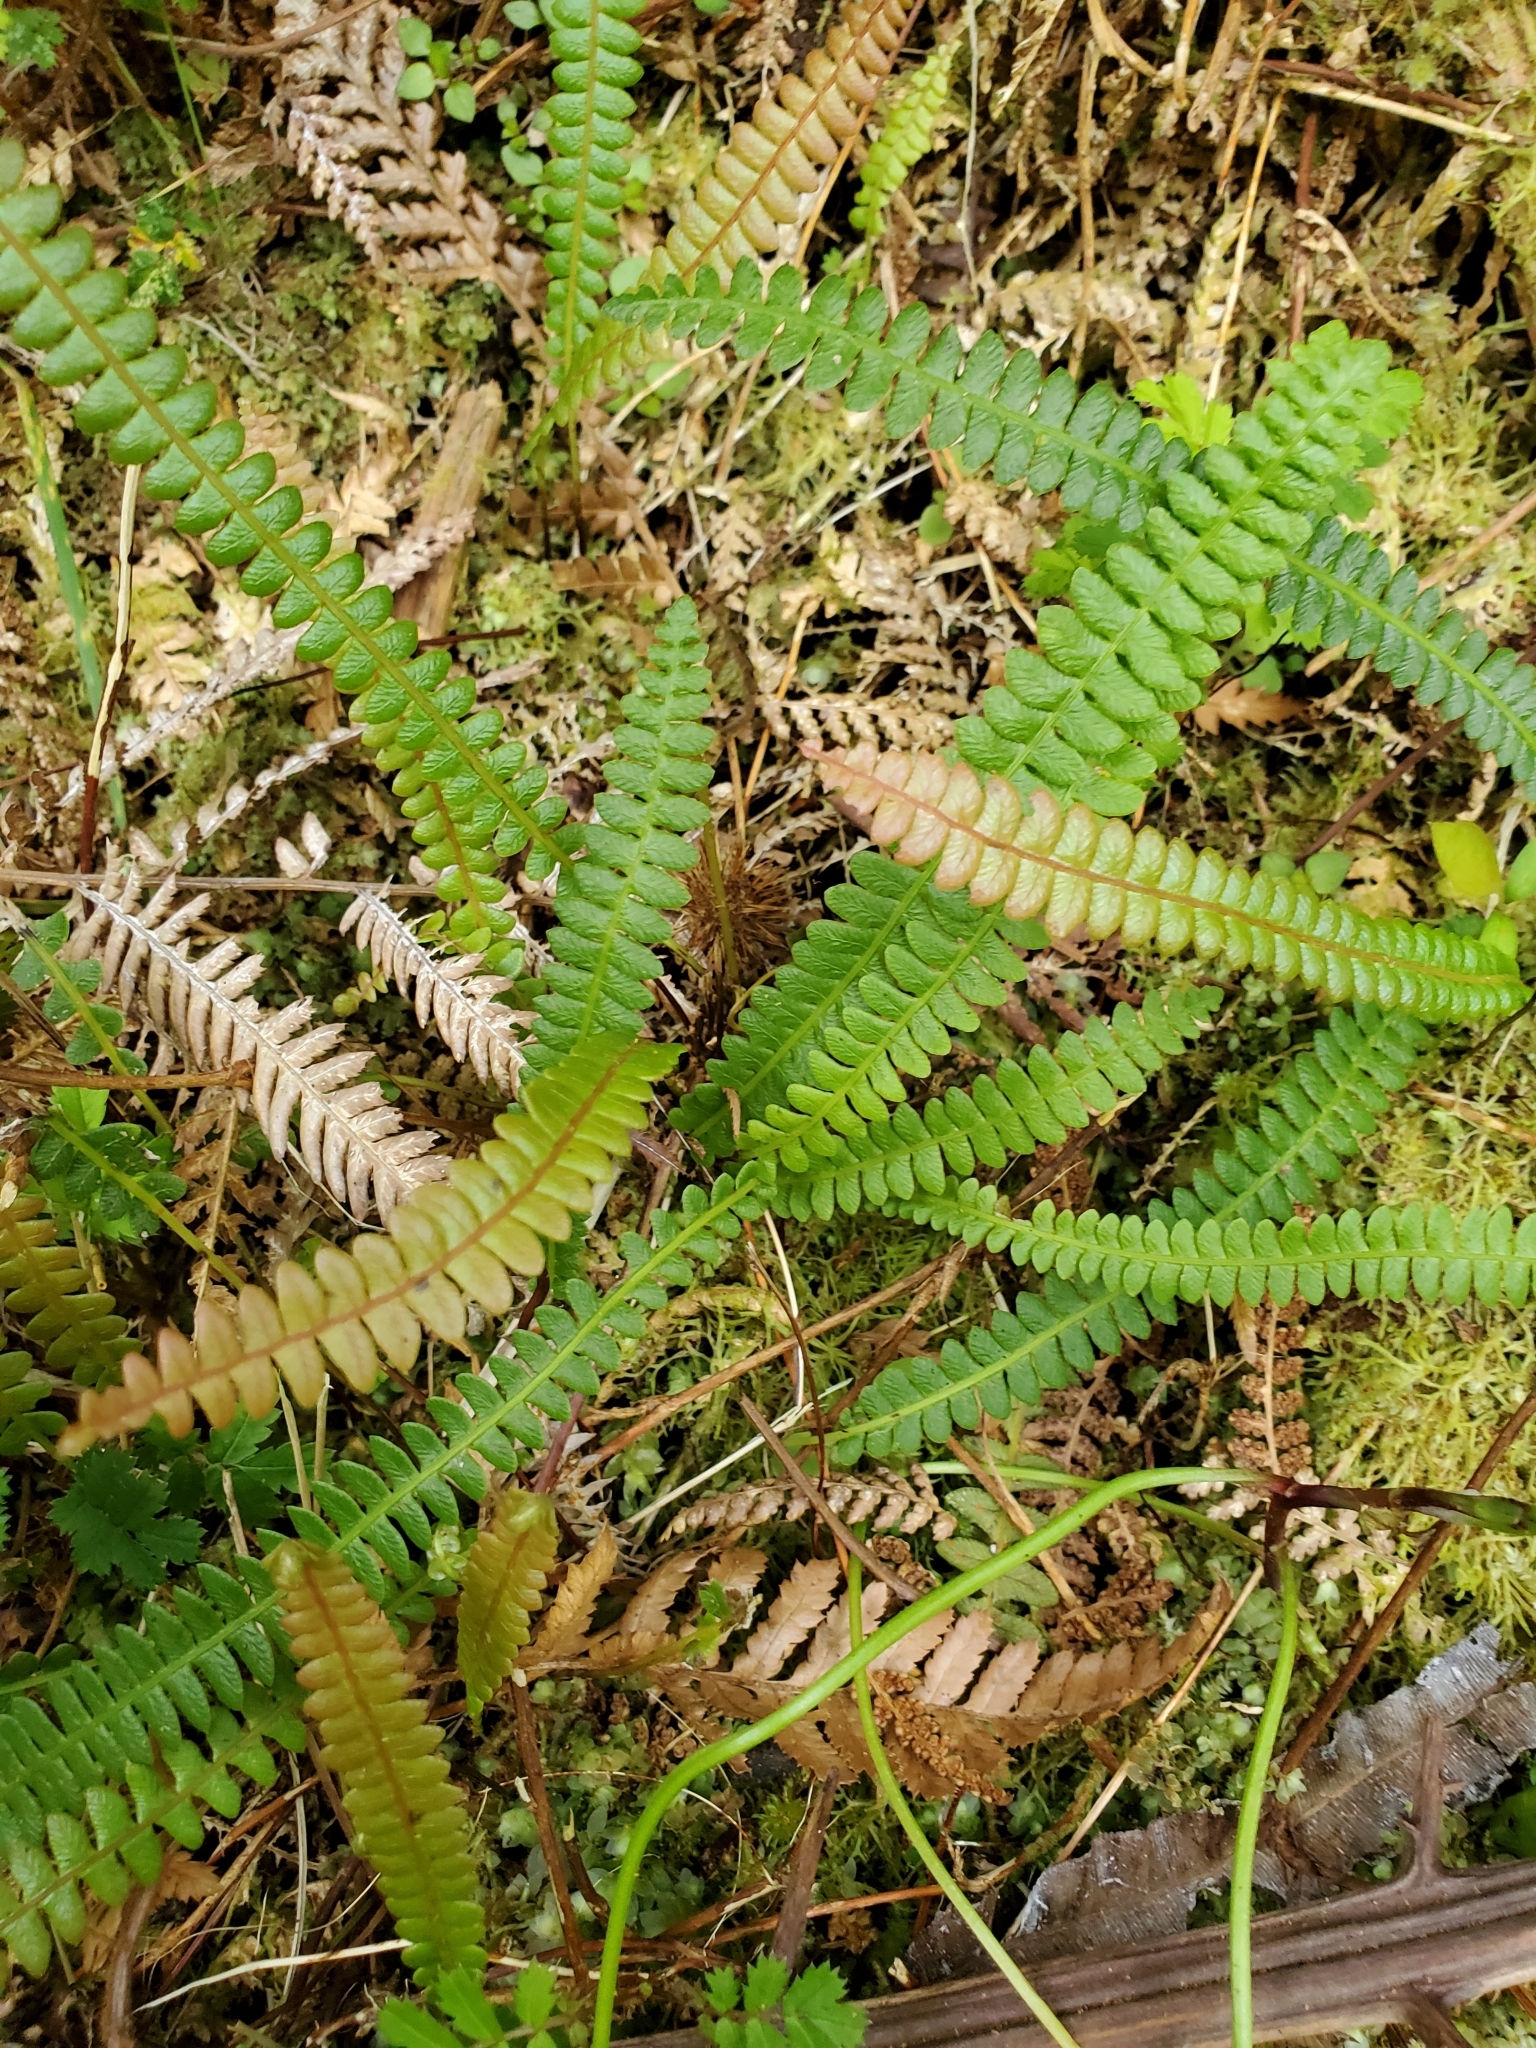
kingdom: Plantae
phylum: Tracheophyta
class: Polypodiopsida
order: Polypodiales
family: Blechnaceae
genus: Austroblechnum
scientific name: Austroblechnum penna-marina
